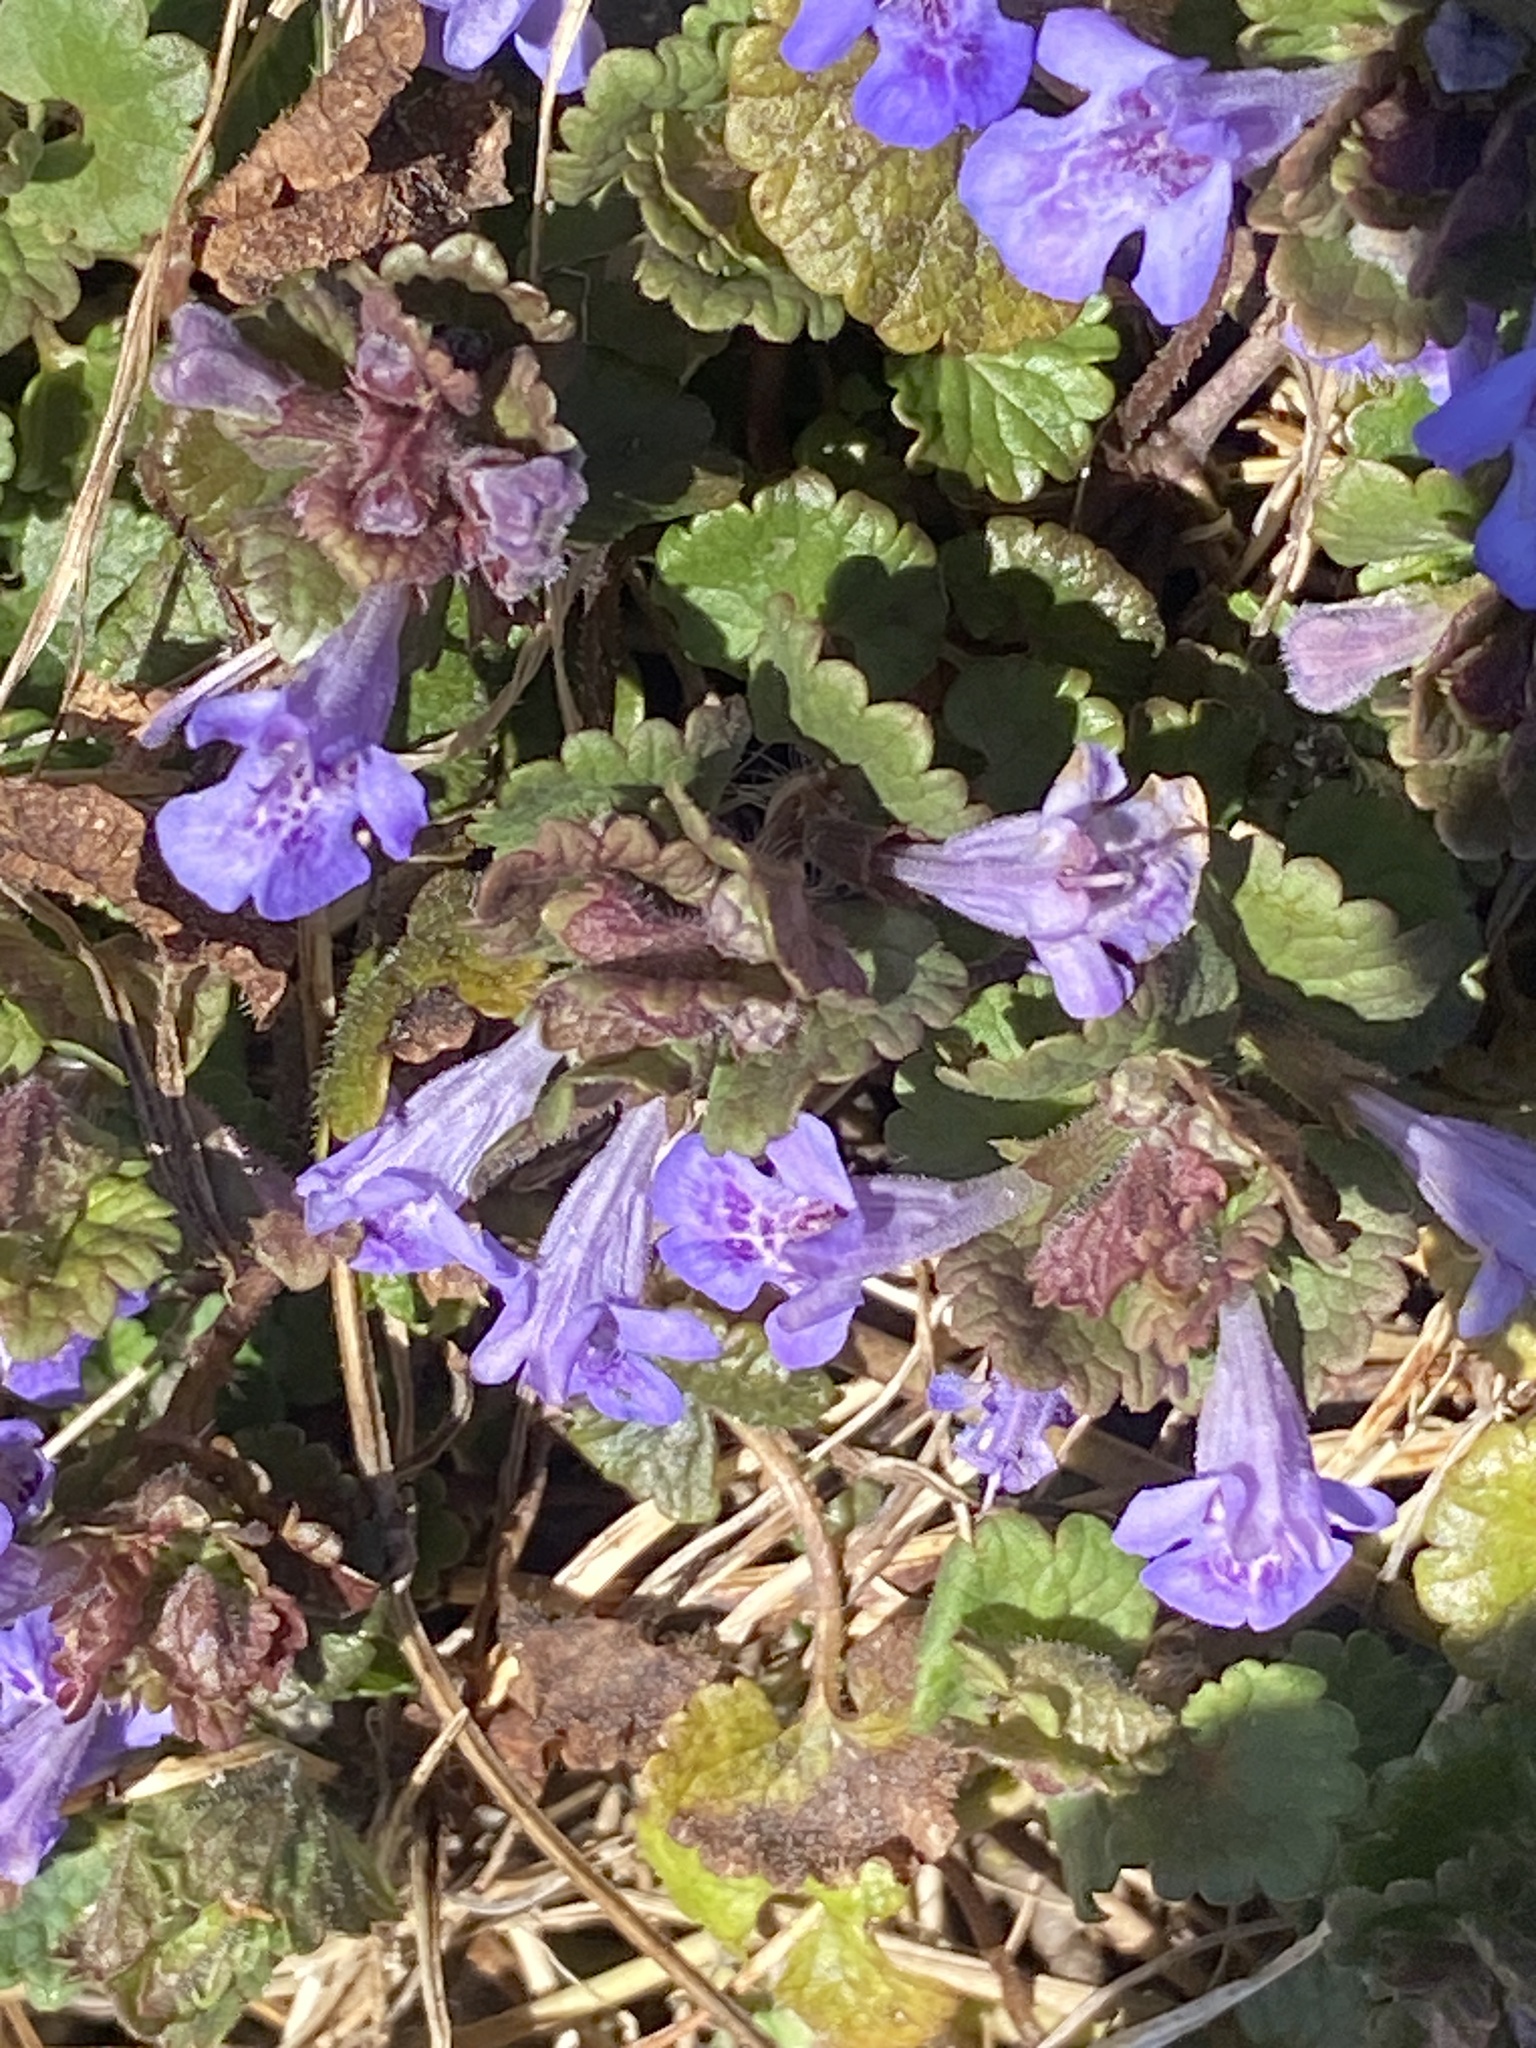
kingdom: Plantae
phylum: Tracheophyta
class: Magnoliopsida
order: Lamiales
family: Lamiaceae
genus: Glechoma
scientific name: Glechoma hederacea
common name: Ground ivy
